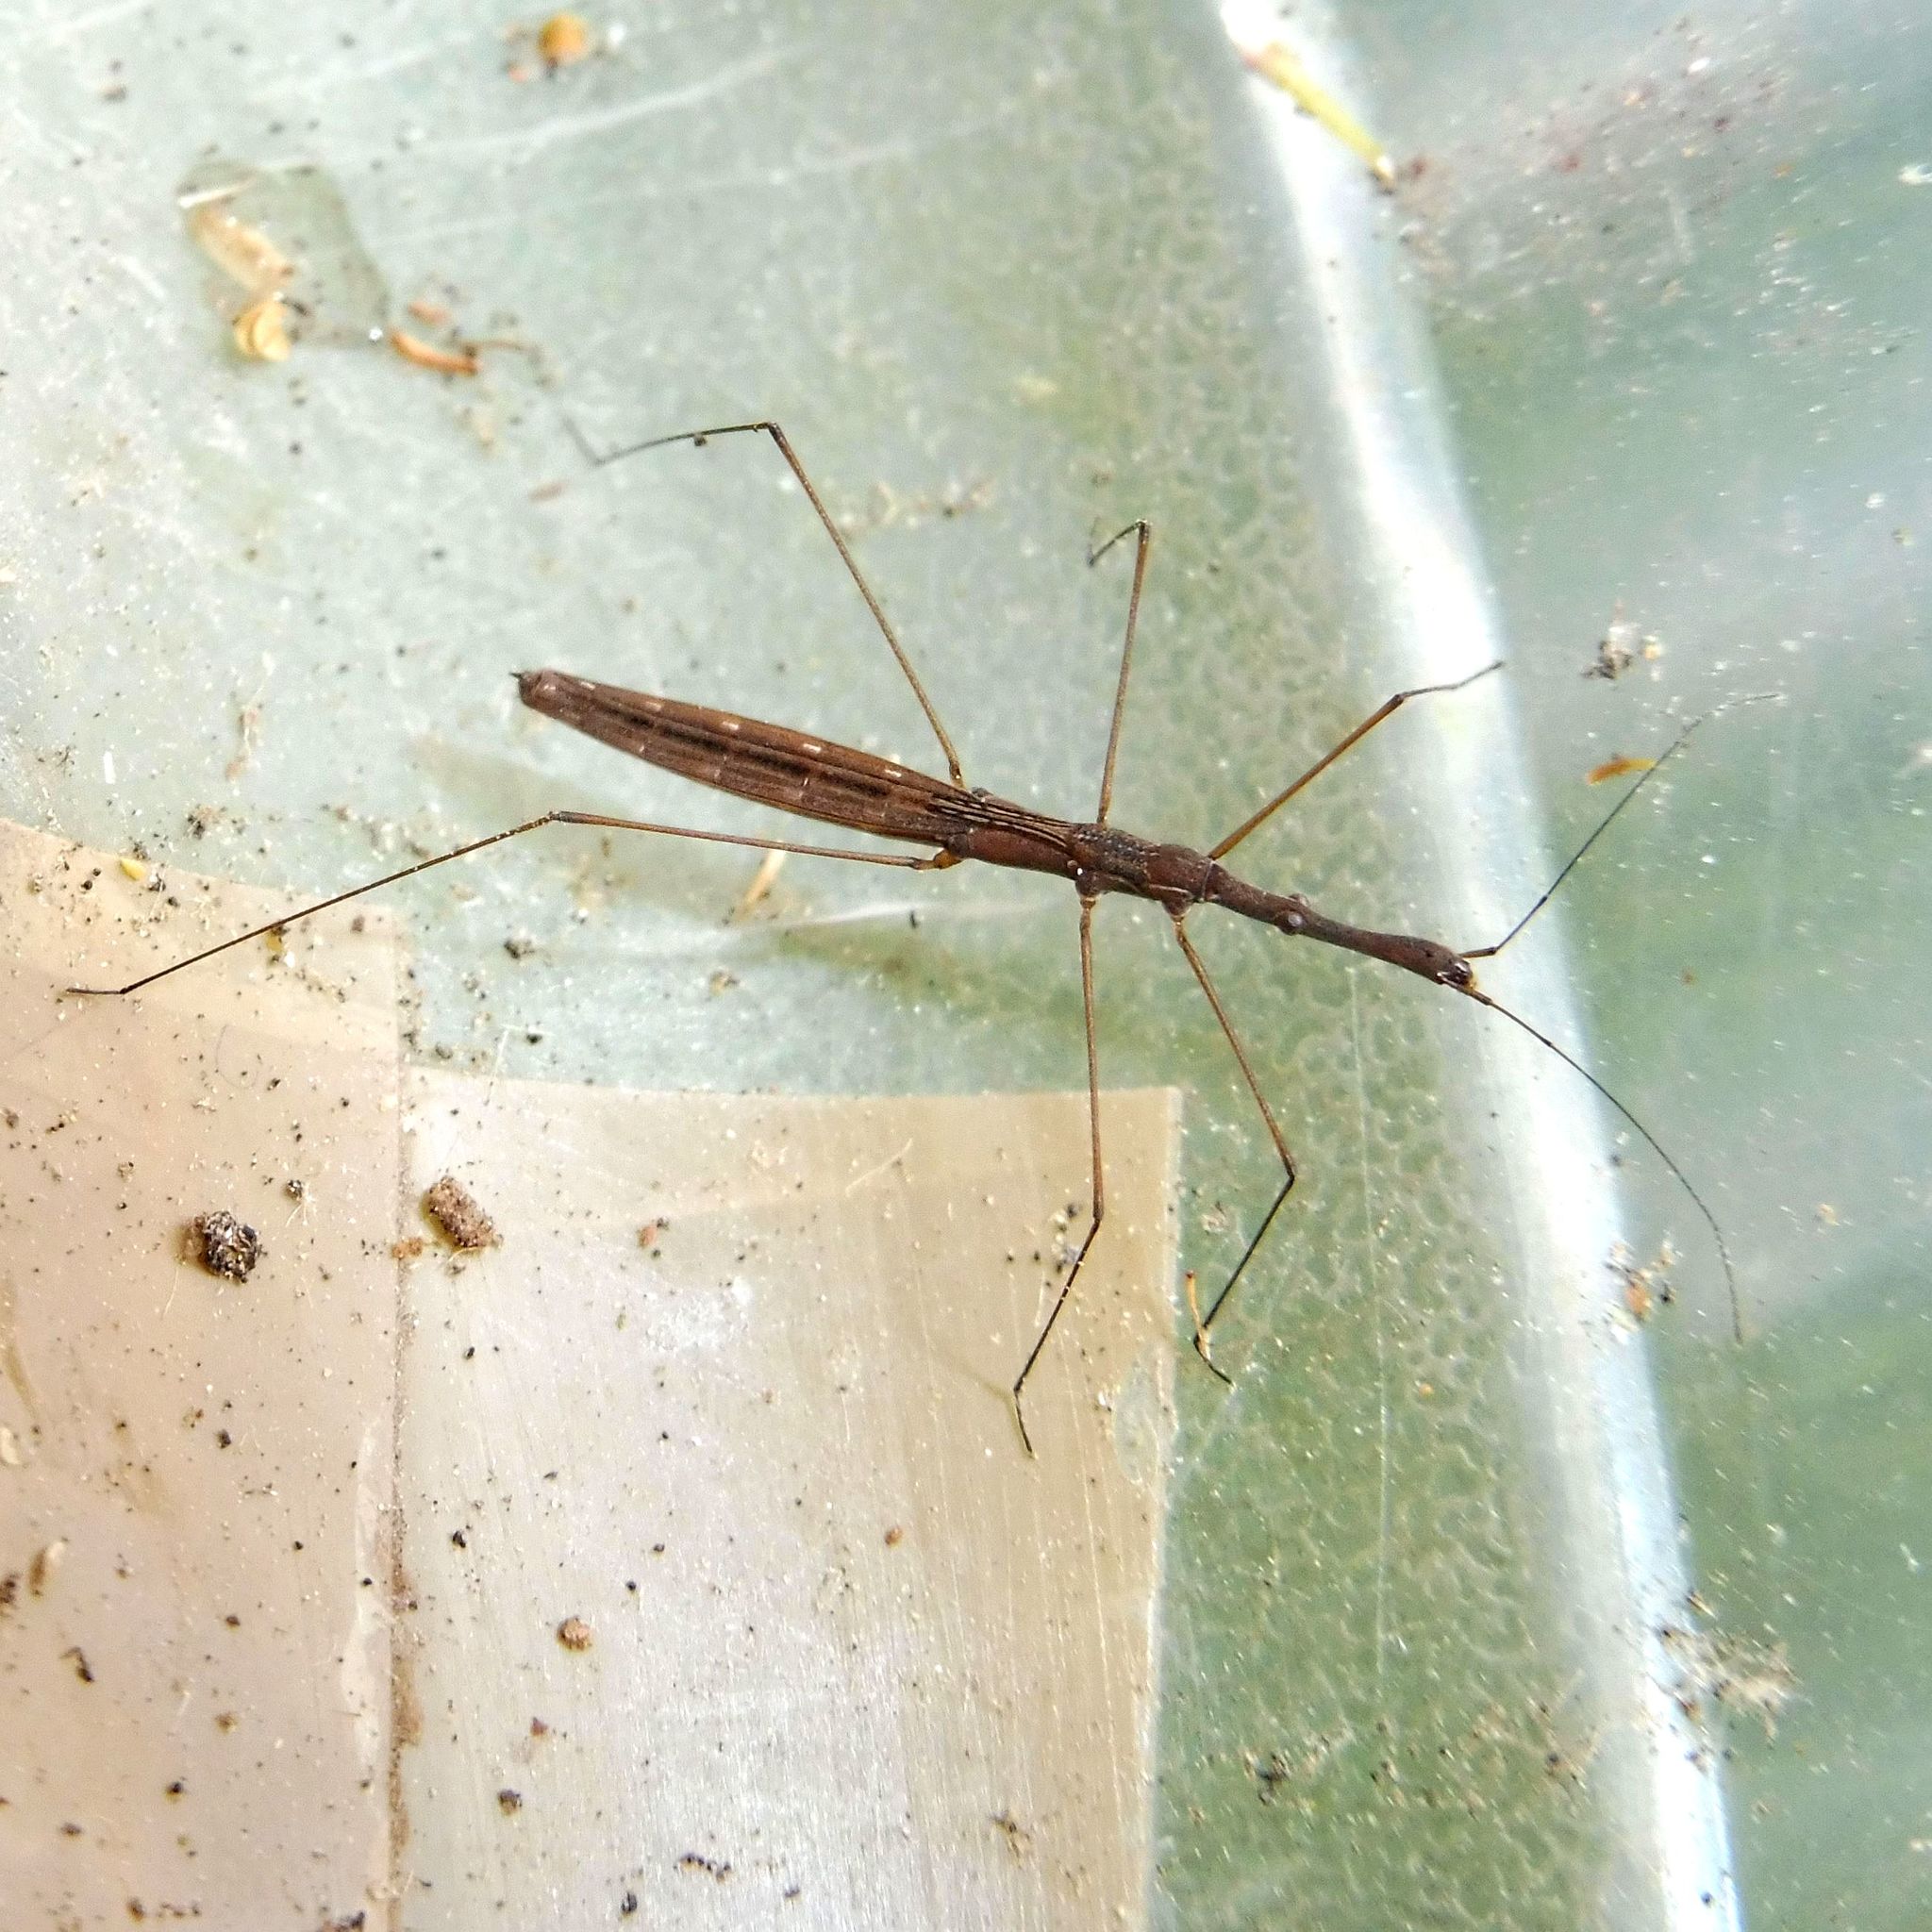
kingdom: Animalia
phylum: Arthropoda
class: Insecta
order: Hemiptera
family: Hydrometridae
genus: Hydrometra
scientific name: Hydrometra stagnorum
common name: Water measurer
